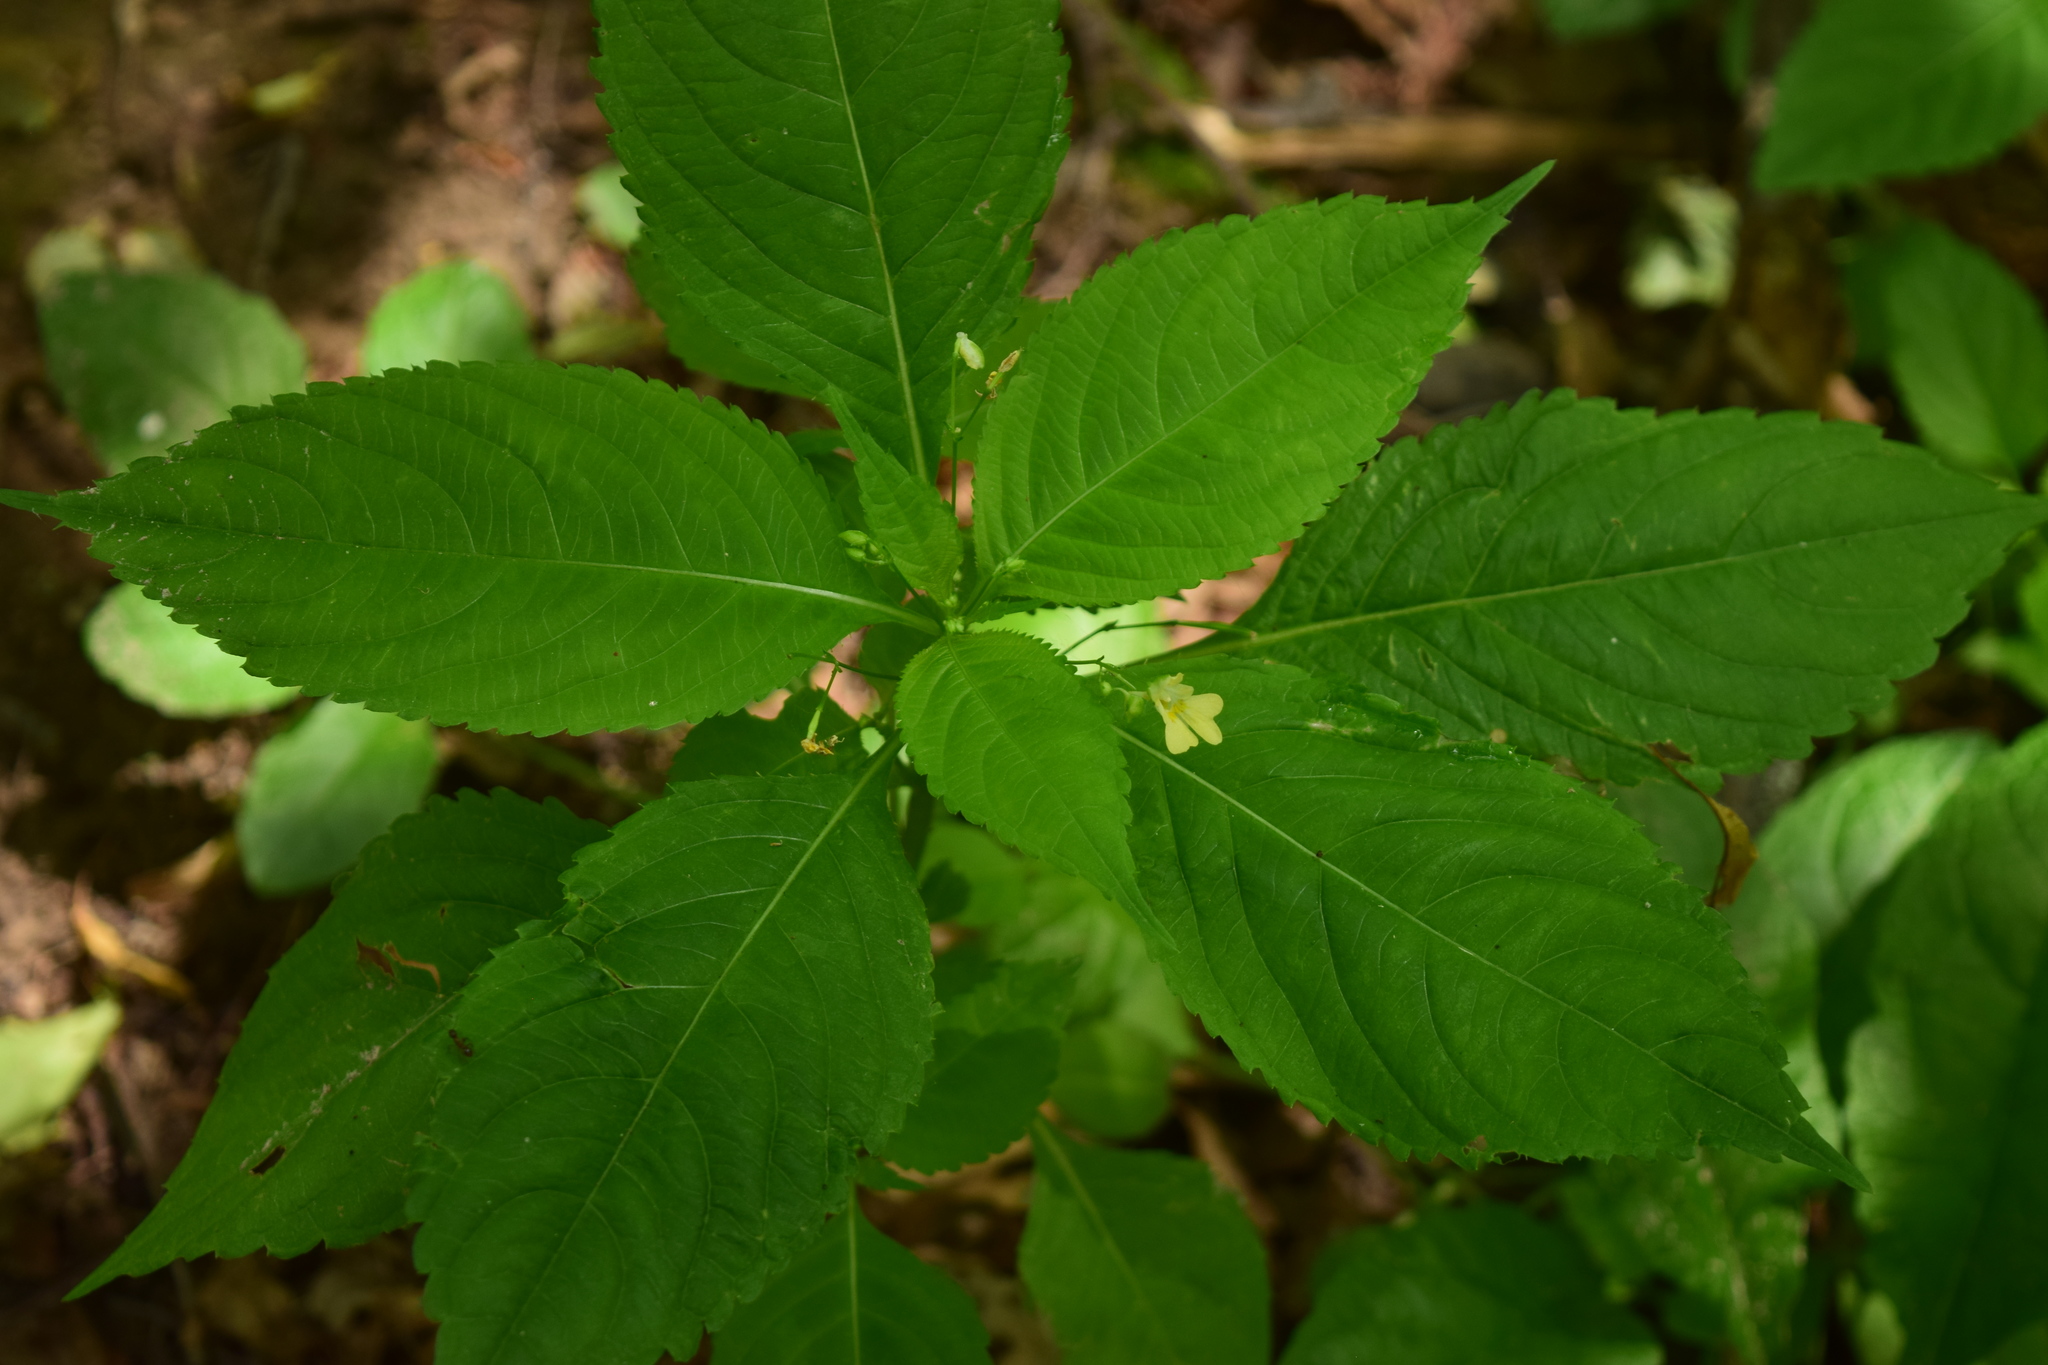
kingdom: Plantae
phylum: Tracheophyta
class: Magnoliopsida
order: Ericales
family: Balsaminaceae
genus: Impatiens
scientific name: Impatiens parviflora
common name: Small balsam
